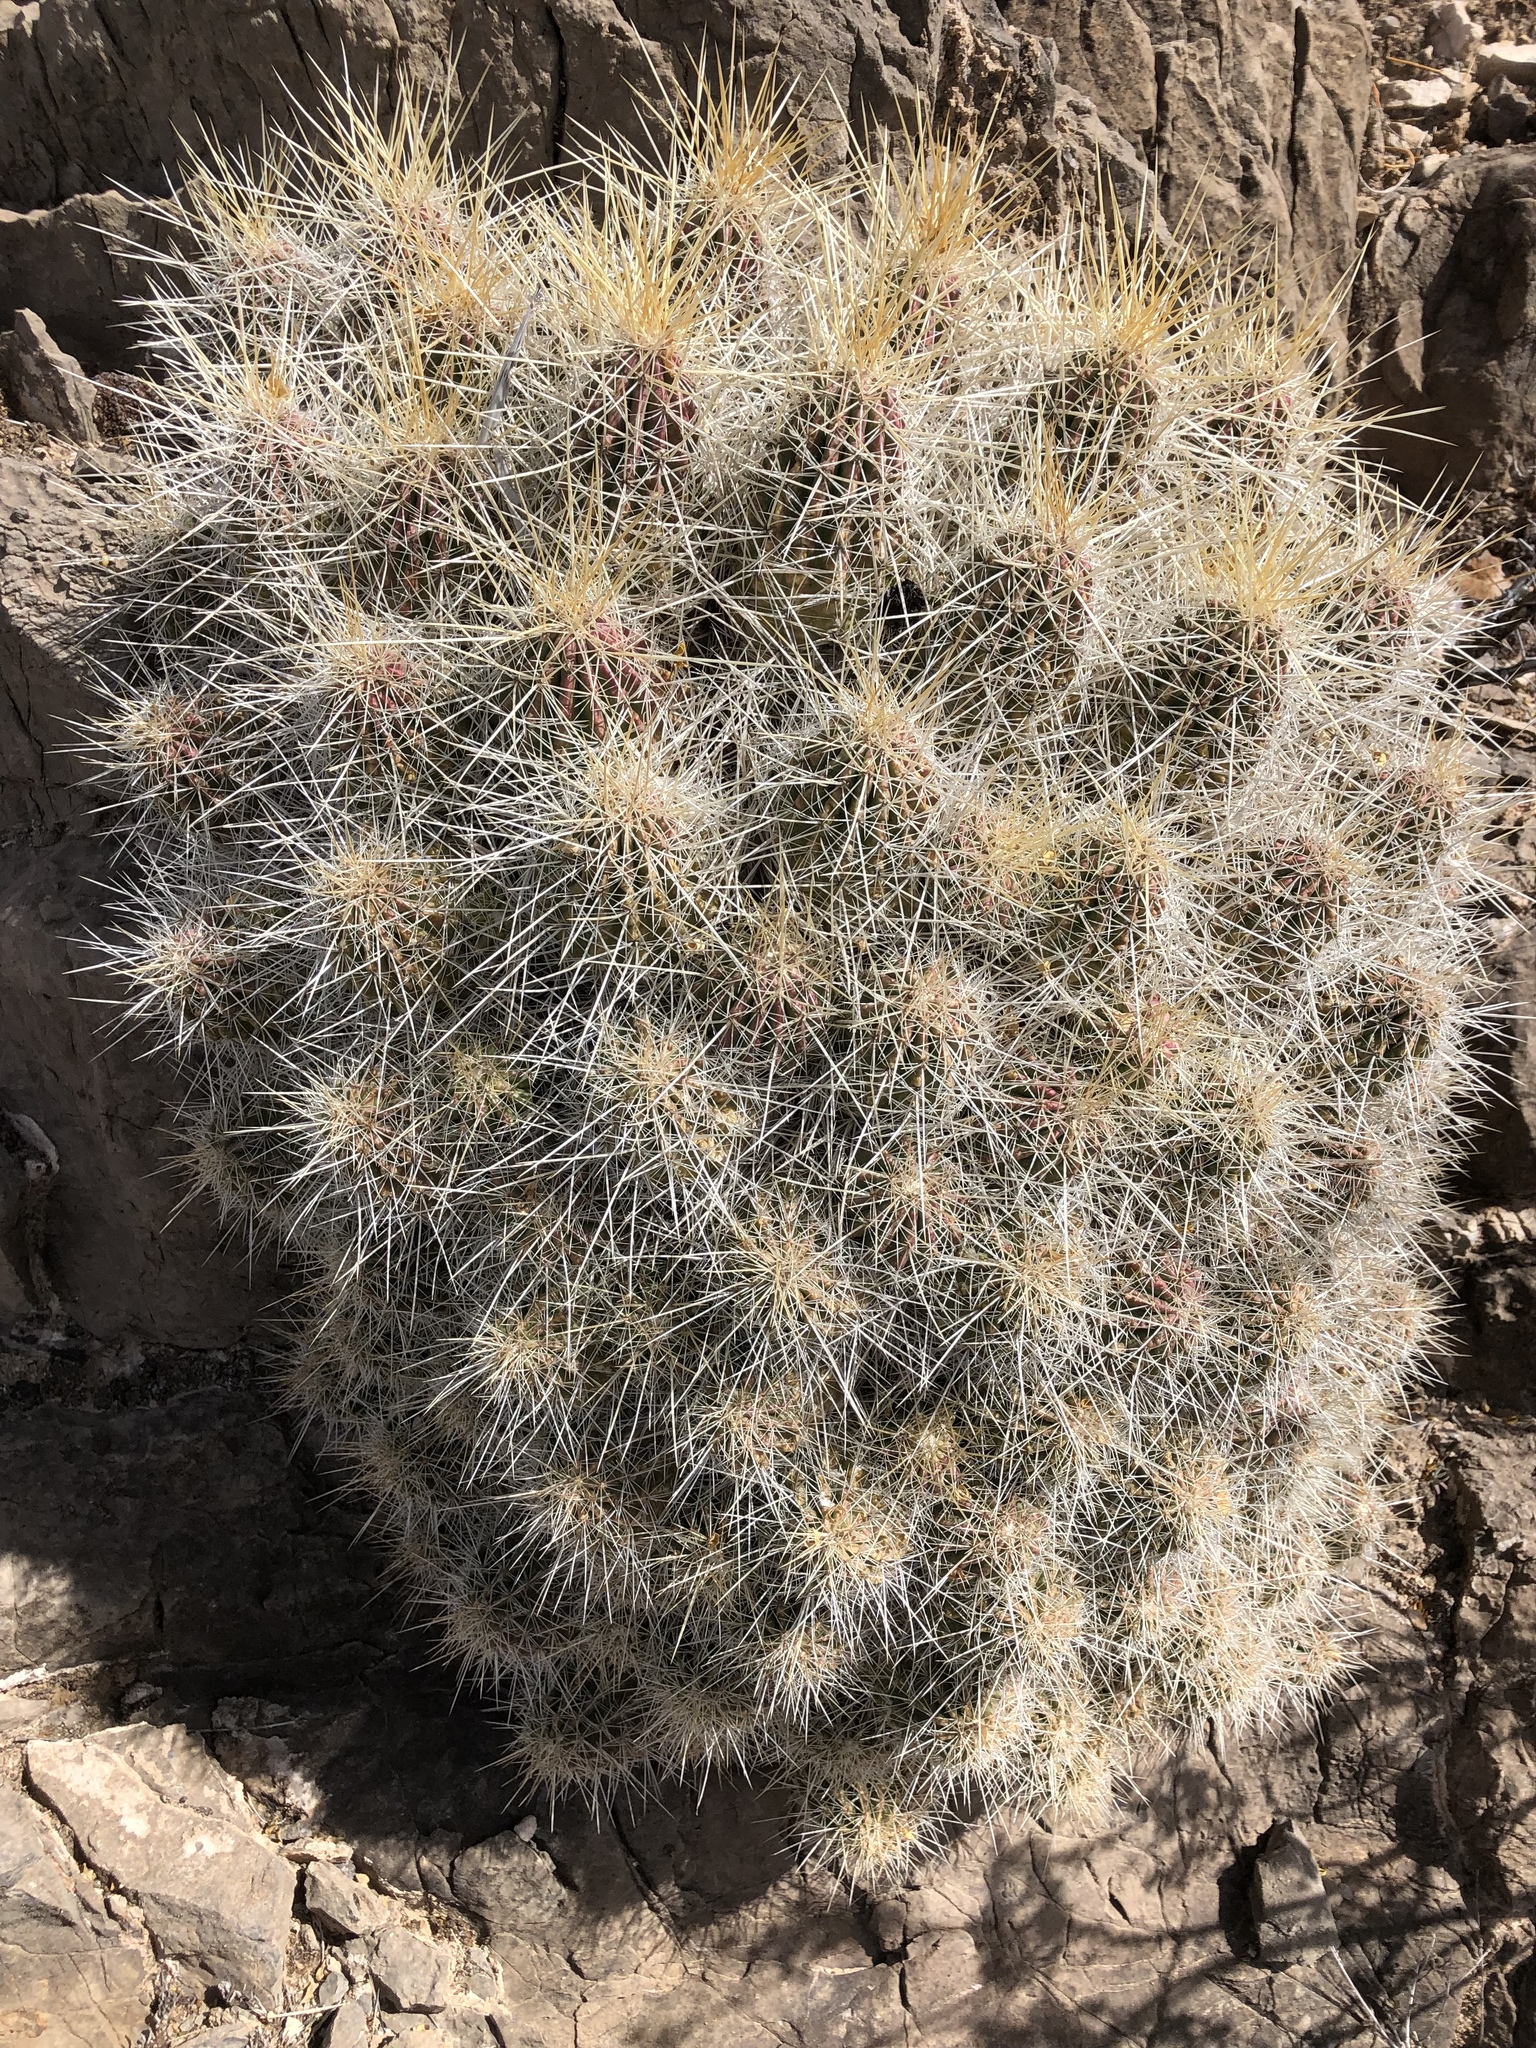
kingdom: Plantae
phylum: Tracheophyta
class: Magnoliopsida
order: Caryophyllales
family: Cactaceae
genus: Echinocereus
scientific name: Echinocereus stramineus
